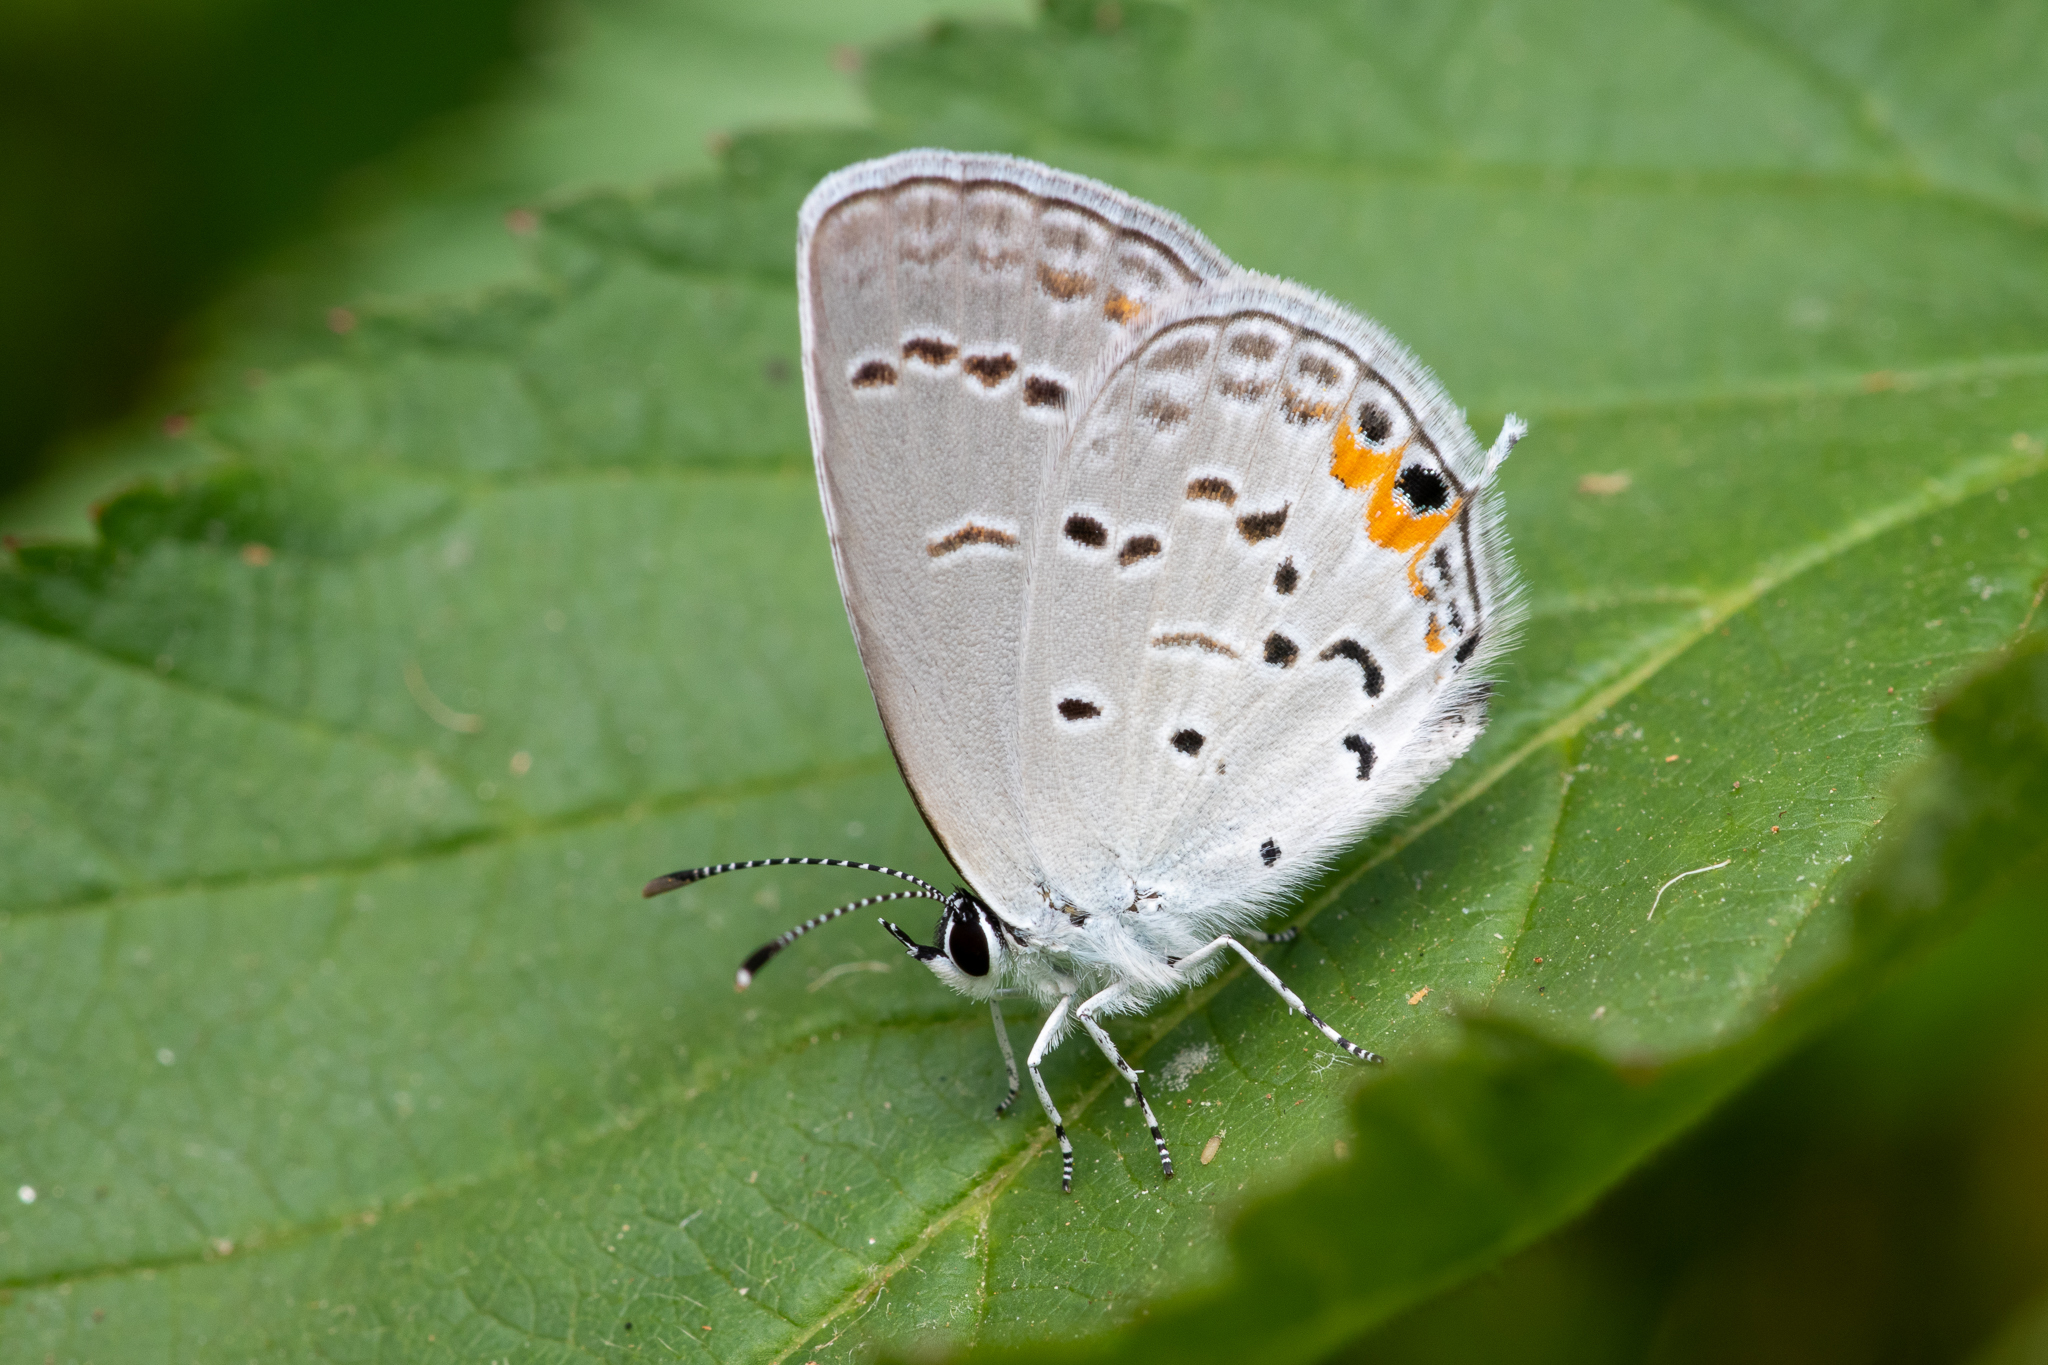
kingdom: Animalia
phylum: Arthropoda
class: Insecta
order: Lepidoptera
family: Lycaenidae
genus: Elkalyce
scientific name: Elkalyce comyntas
